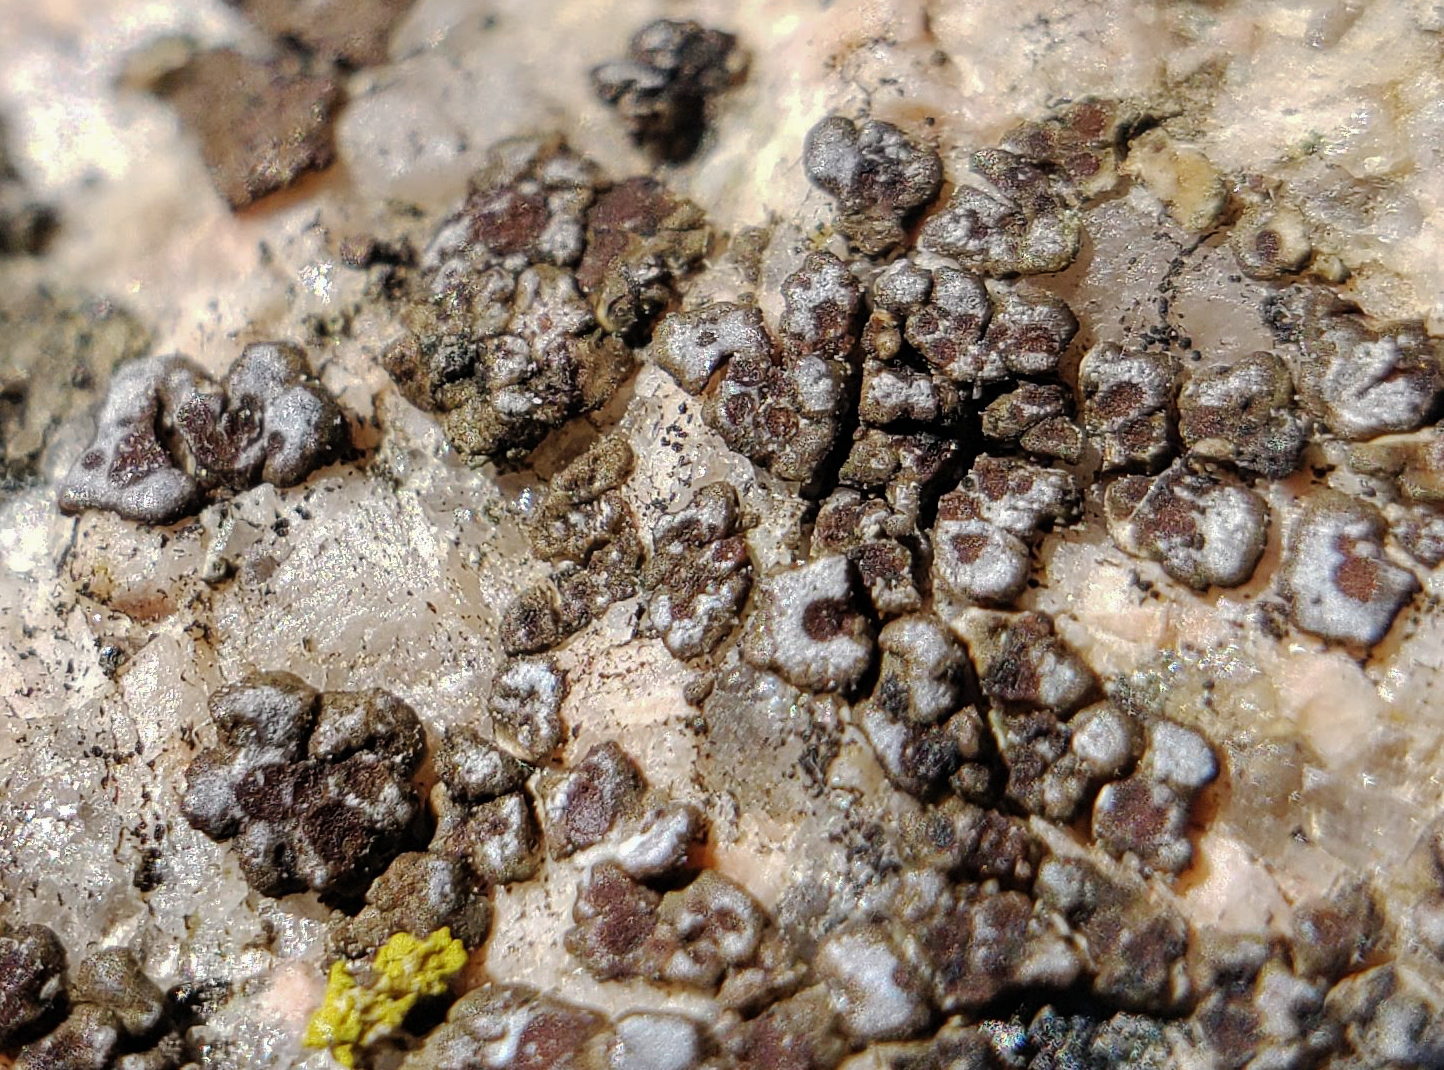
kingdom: Fungi
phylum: Ascomycota
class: Lecanoromycetes
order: Acarosporales
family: Acarosporaceae
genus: Acarospora
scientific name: Acarospora americana
